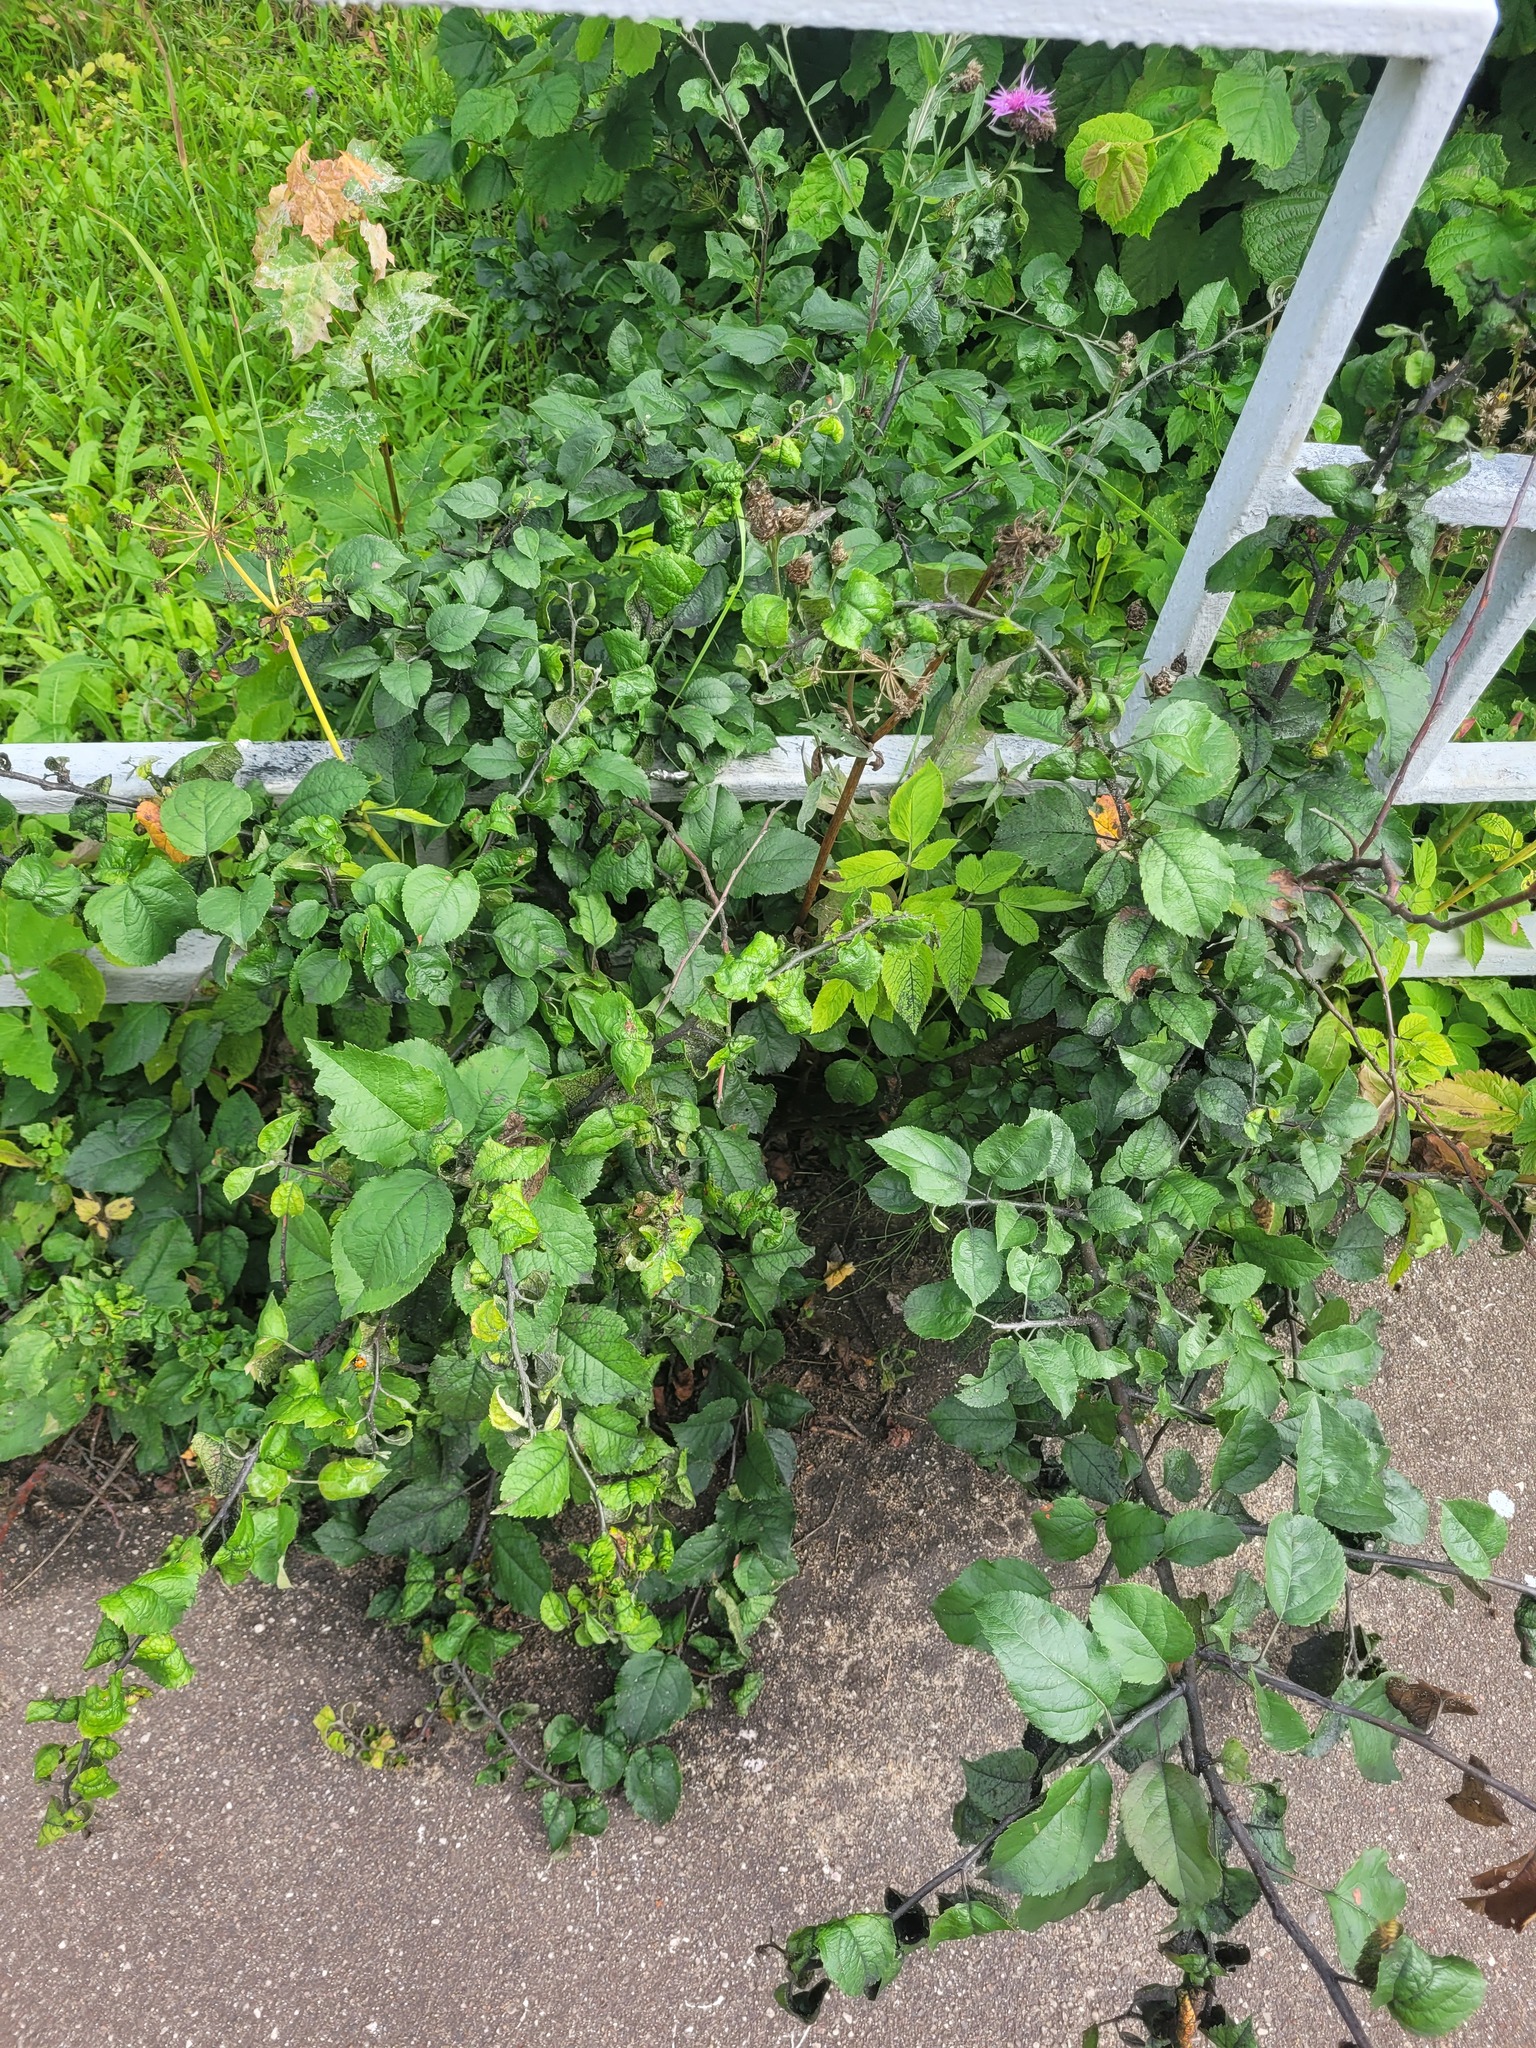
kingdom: Plantae
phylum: Tracheophyta
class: Magnoliopsida
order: Rosales
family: Rosaceae
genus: Malus
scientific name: Malus domestica
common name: Apple
